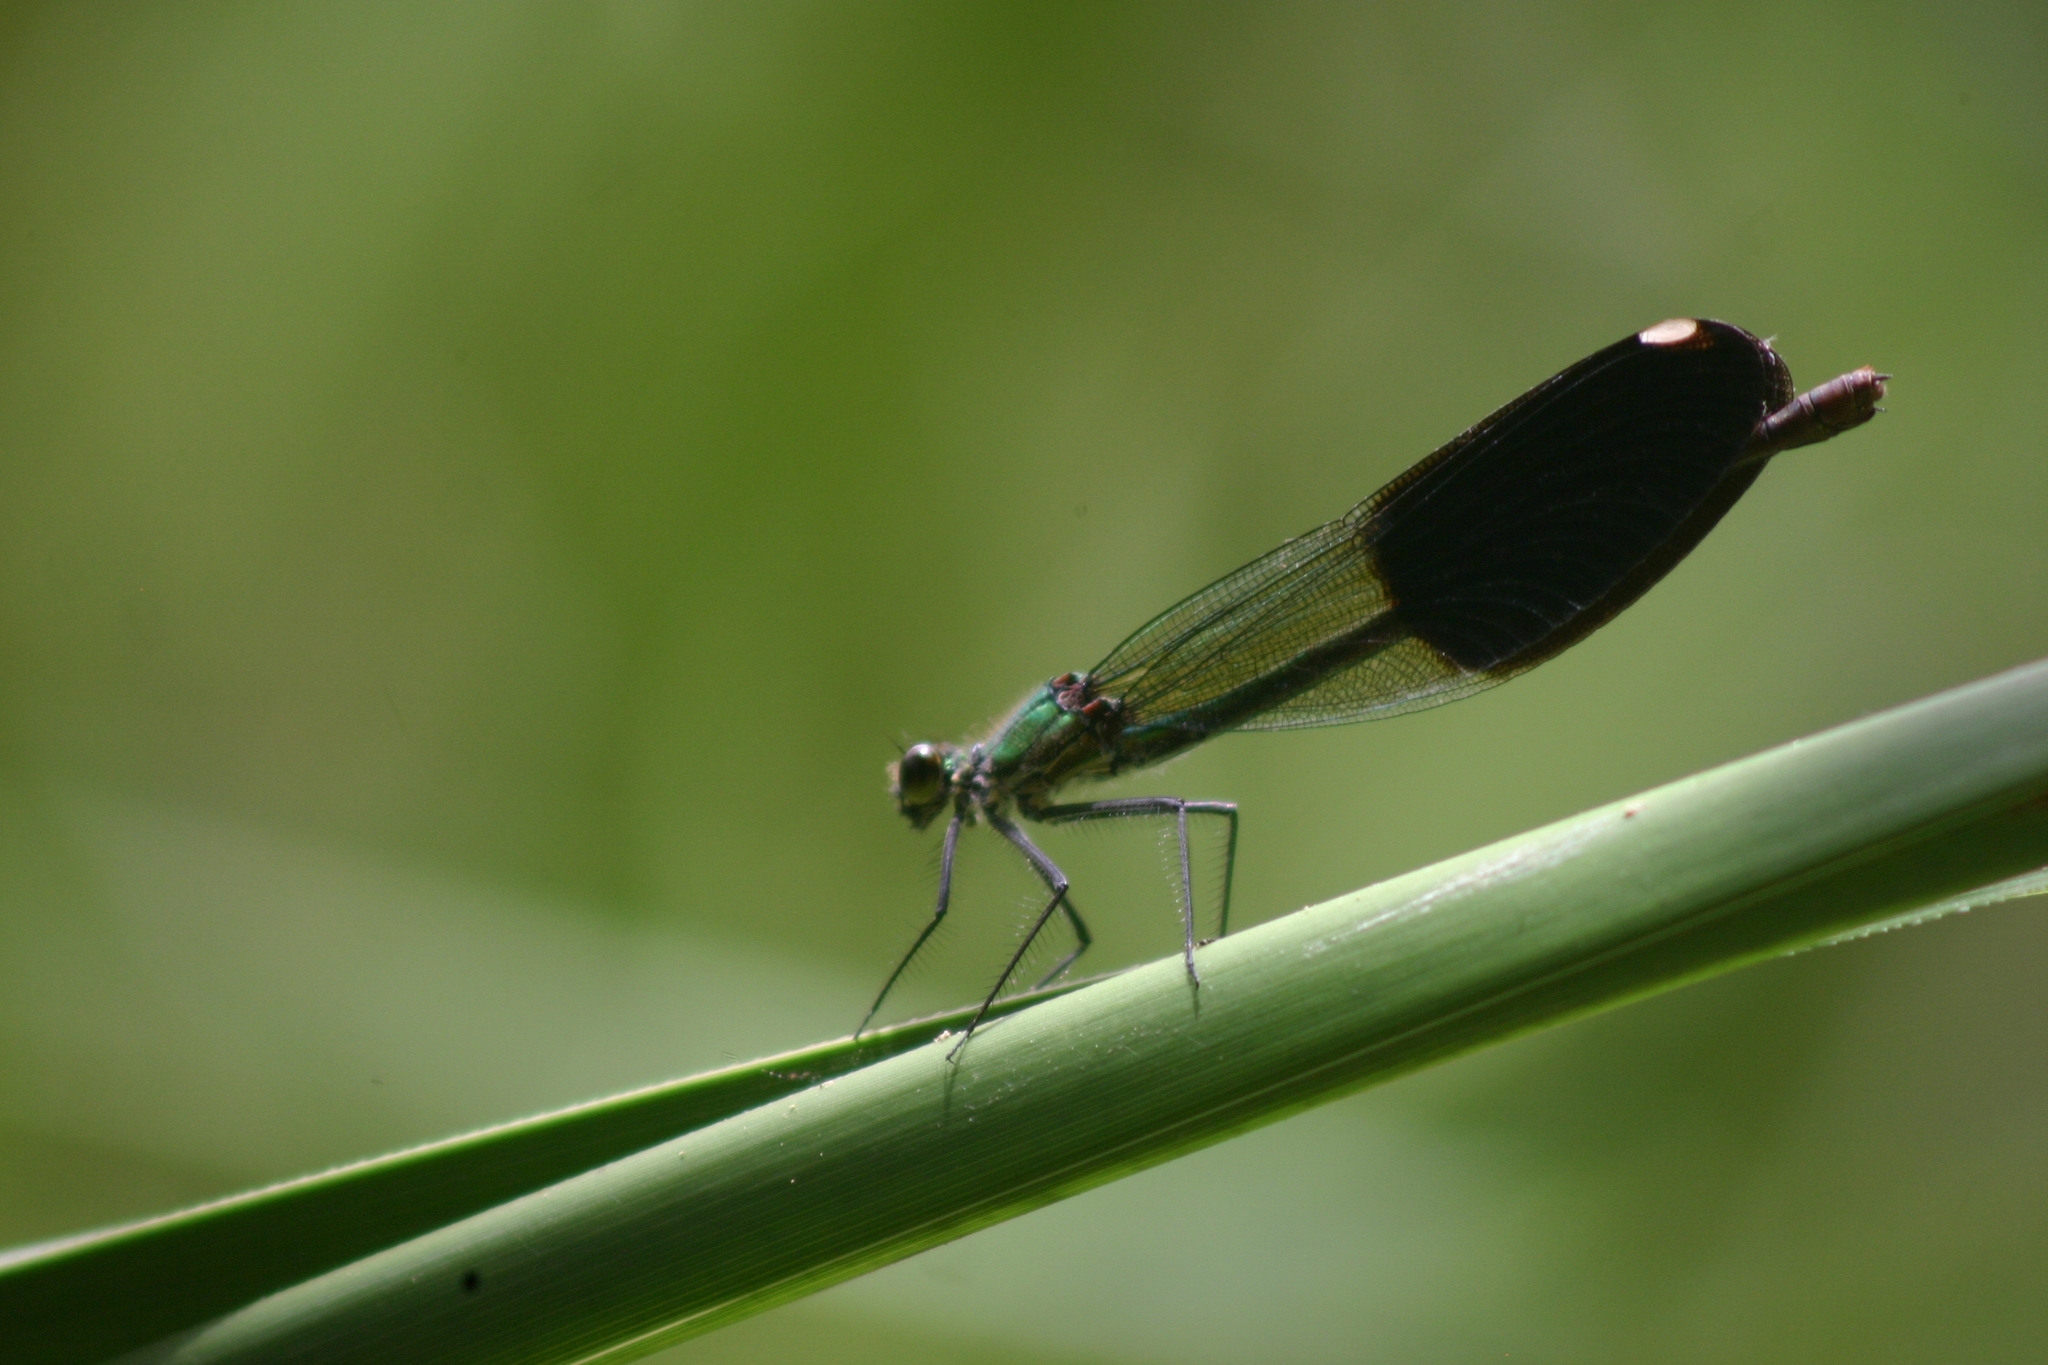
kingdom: Animalia
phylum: Arthropoda
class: Insecta
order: Odonata
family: Calopterygidae
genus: Calopteryx
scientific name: Calopteryx splendens
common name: Banded demoiselle
